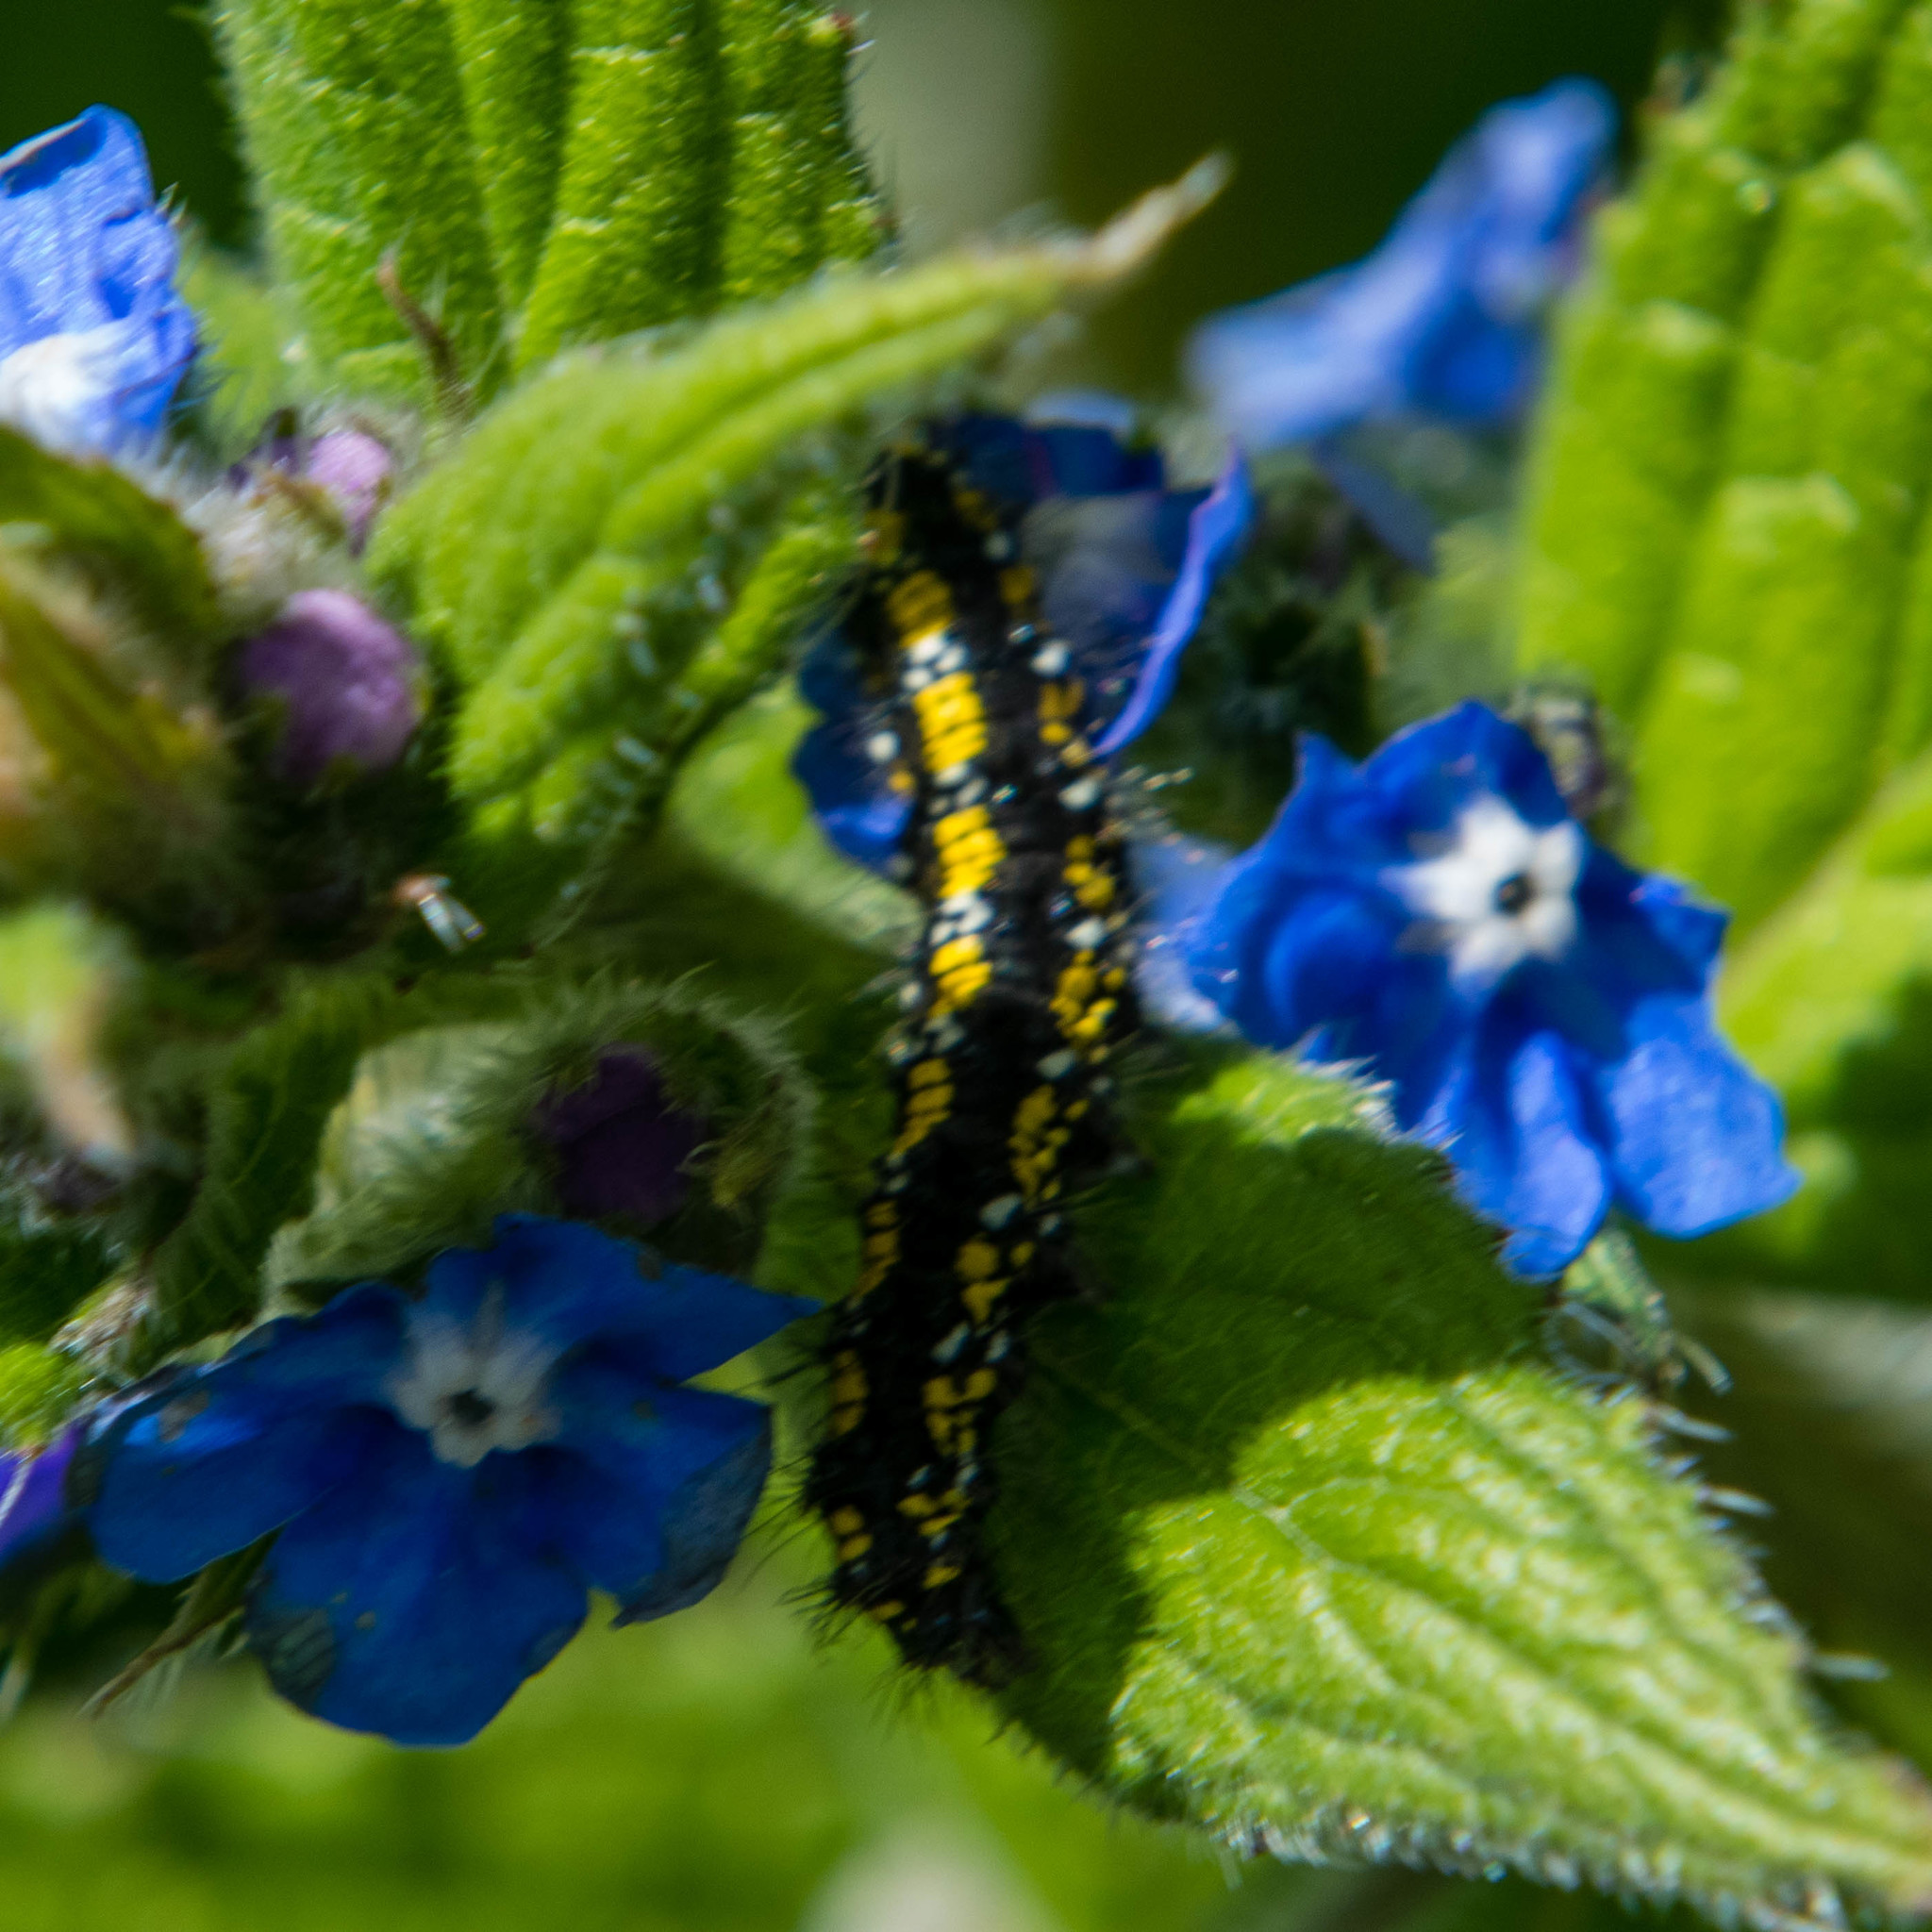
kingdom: Animalia
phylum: Arthropoda
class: Insecta
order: Lepidoptera
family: Erebidae
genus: Callimorpha
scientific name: Callimorpha dominula
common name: Scarlet tiger
